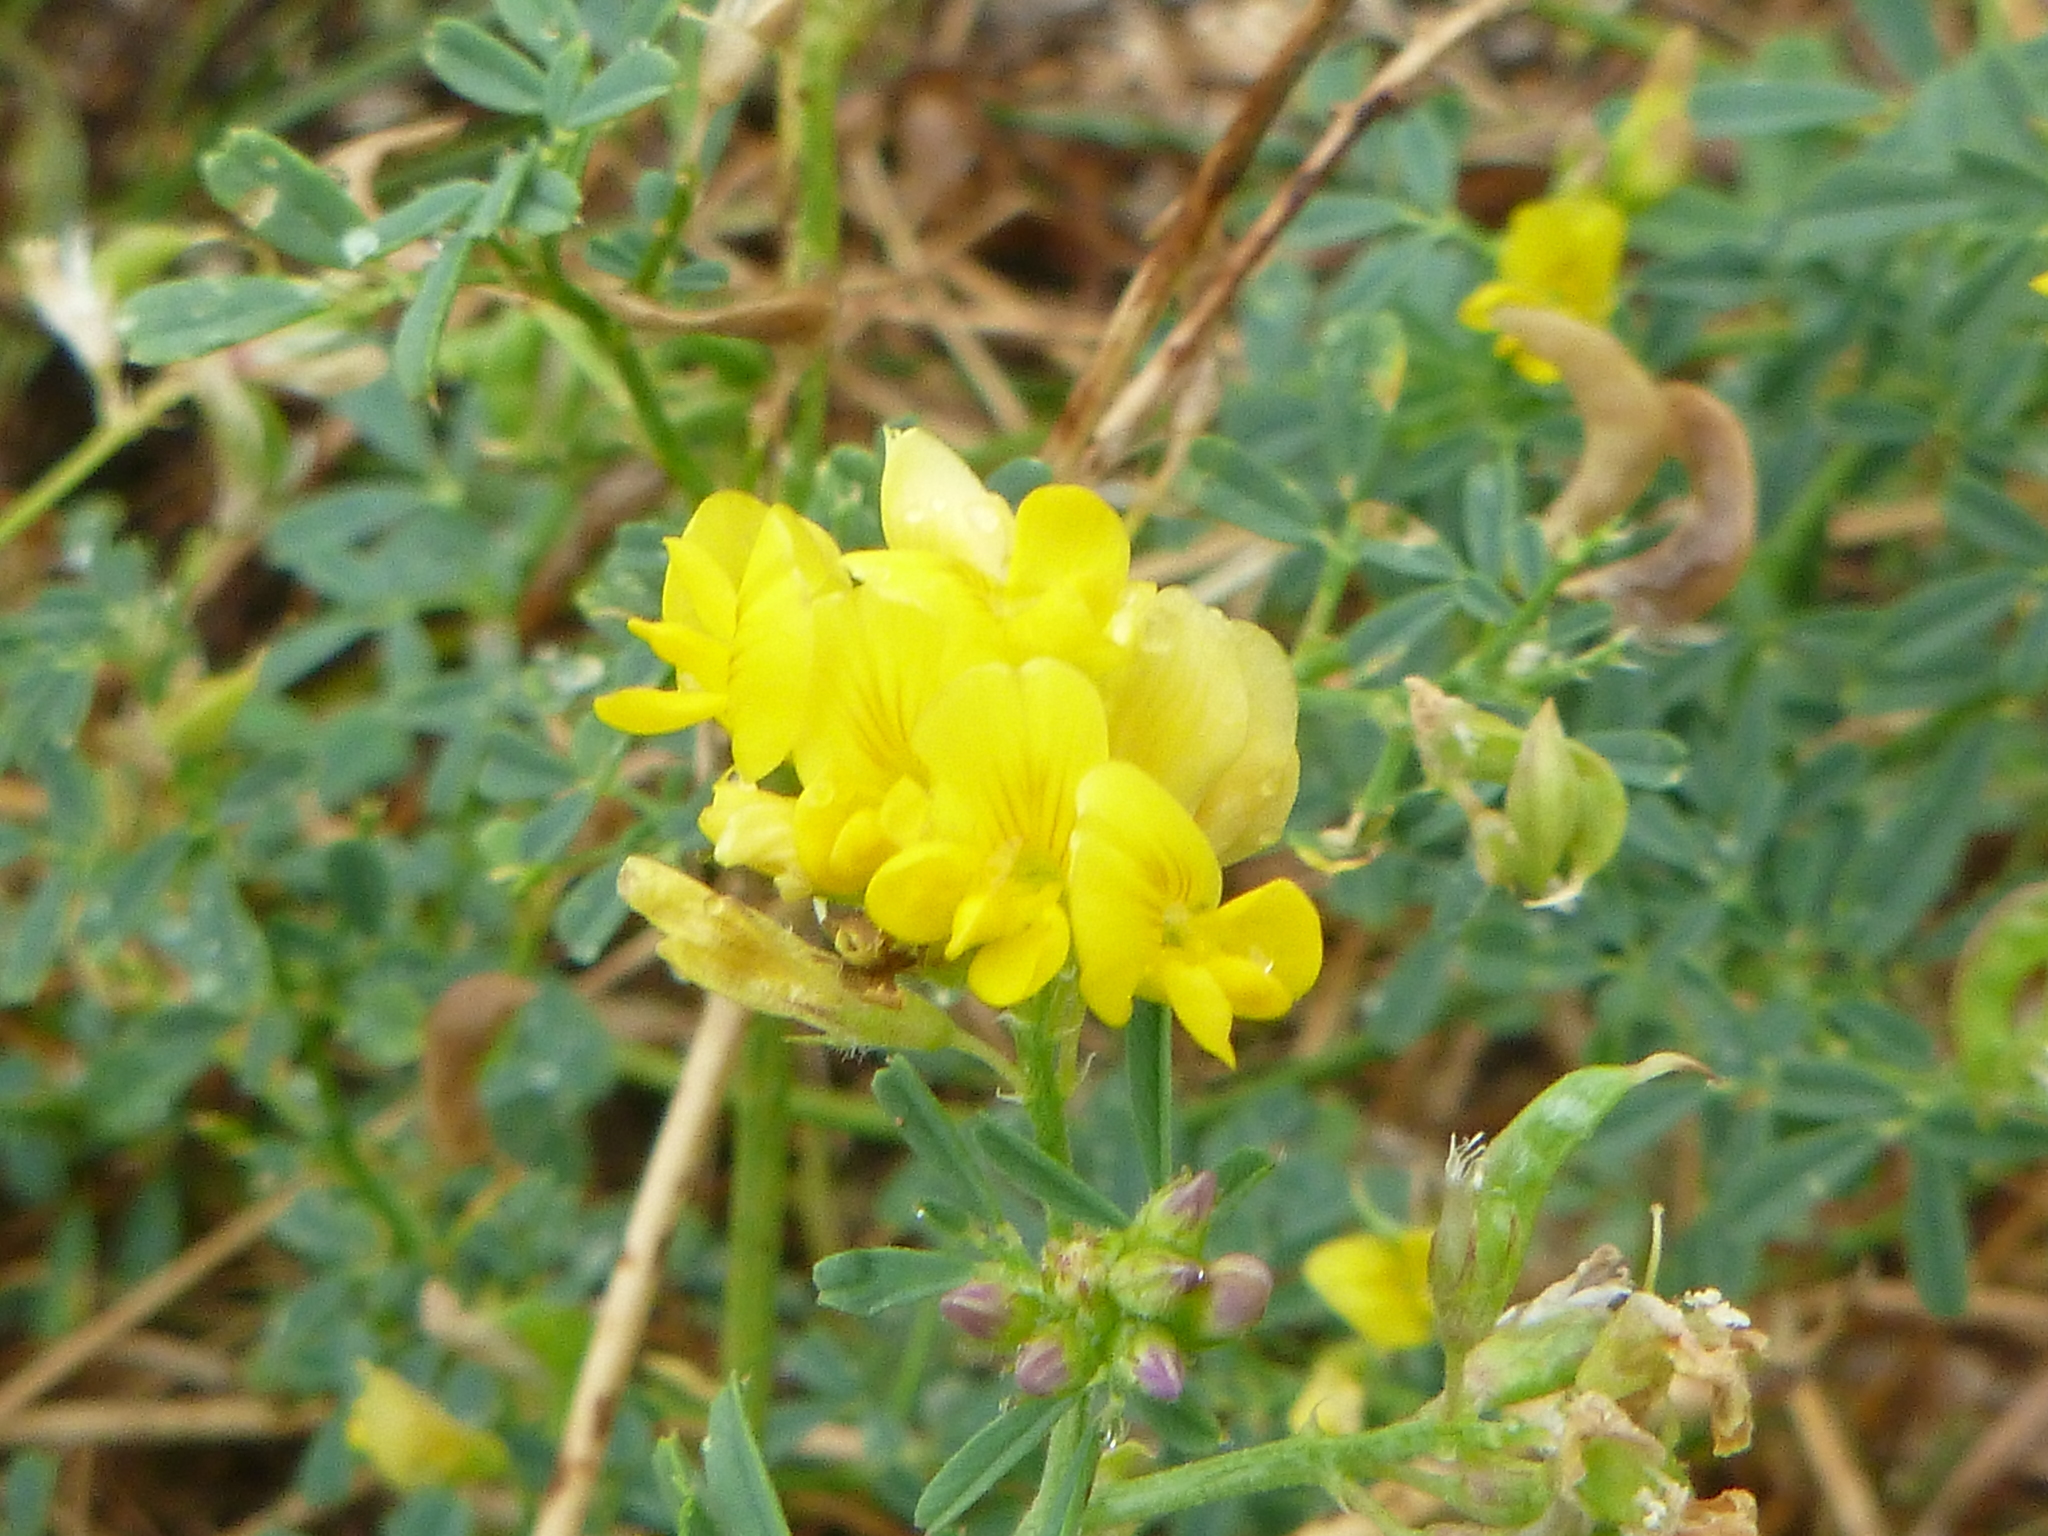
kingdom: Plantae
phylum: Tracheophyta
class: Magnoliopsida
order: Fabales
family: Fabaceae
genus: Medicago
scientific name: Medicago falcata
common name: Sickle medick
